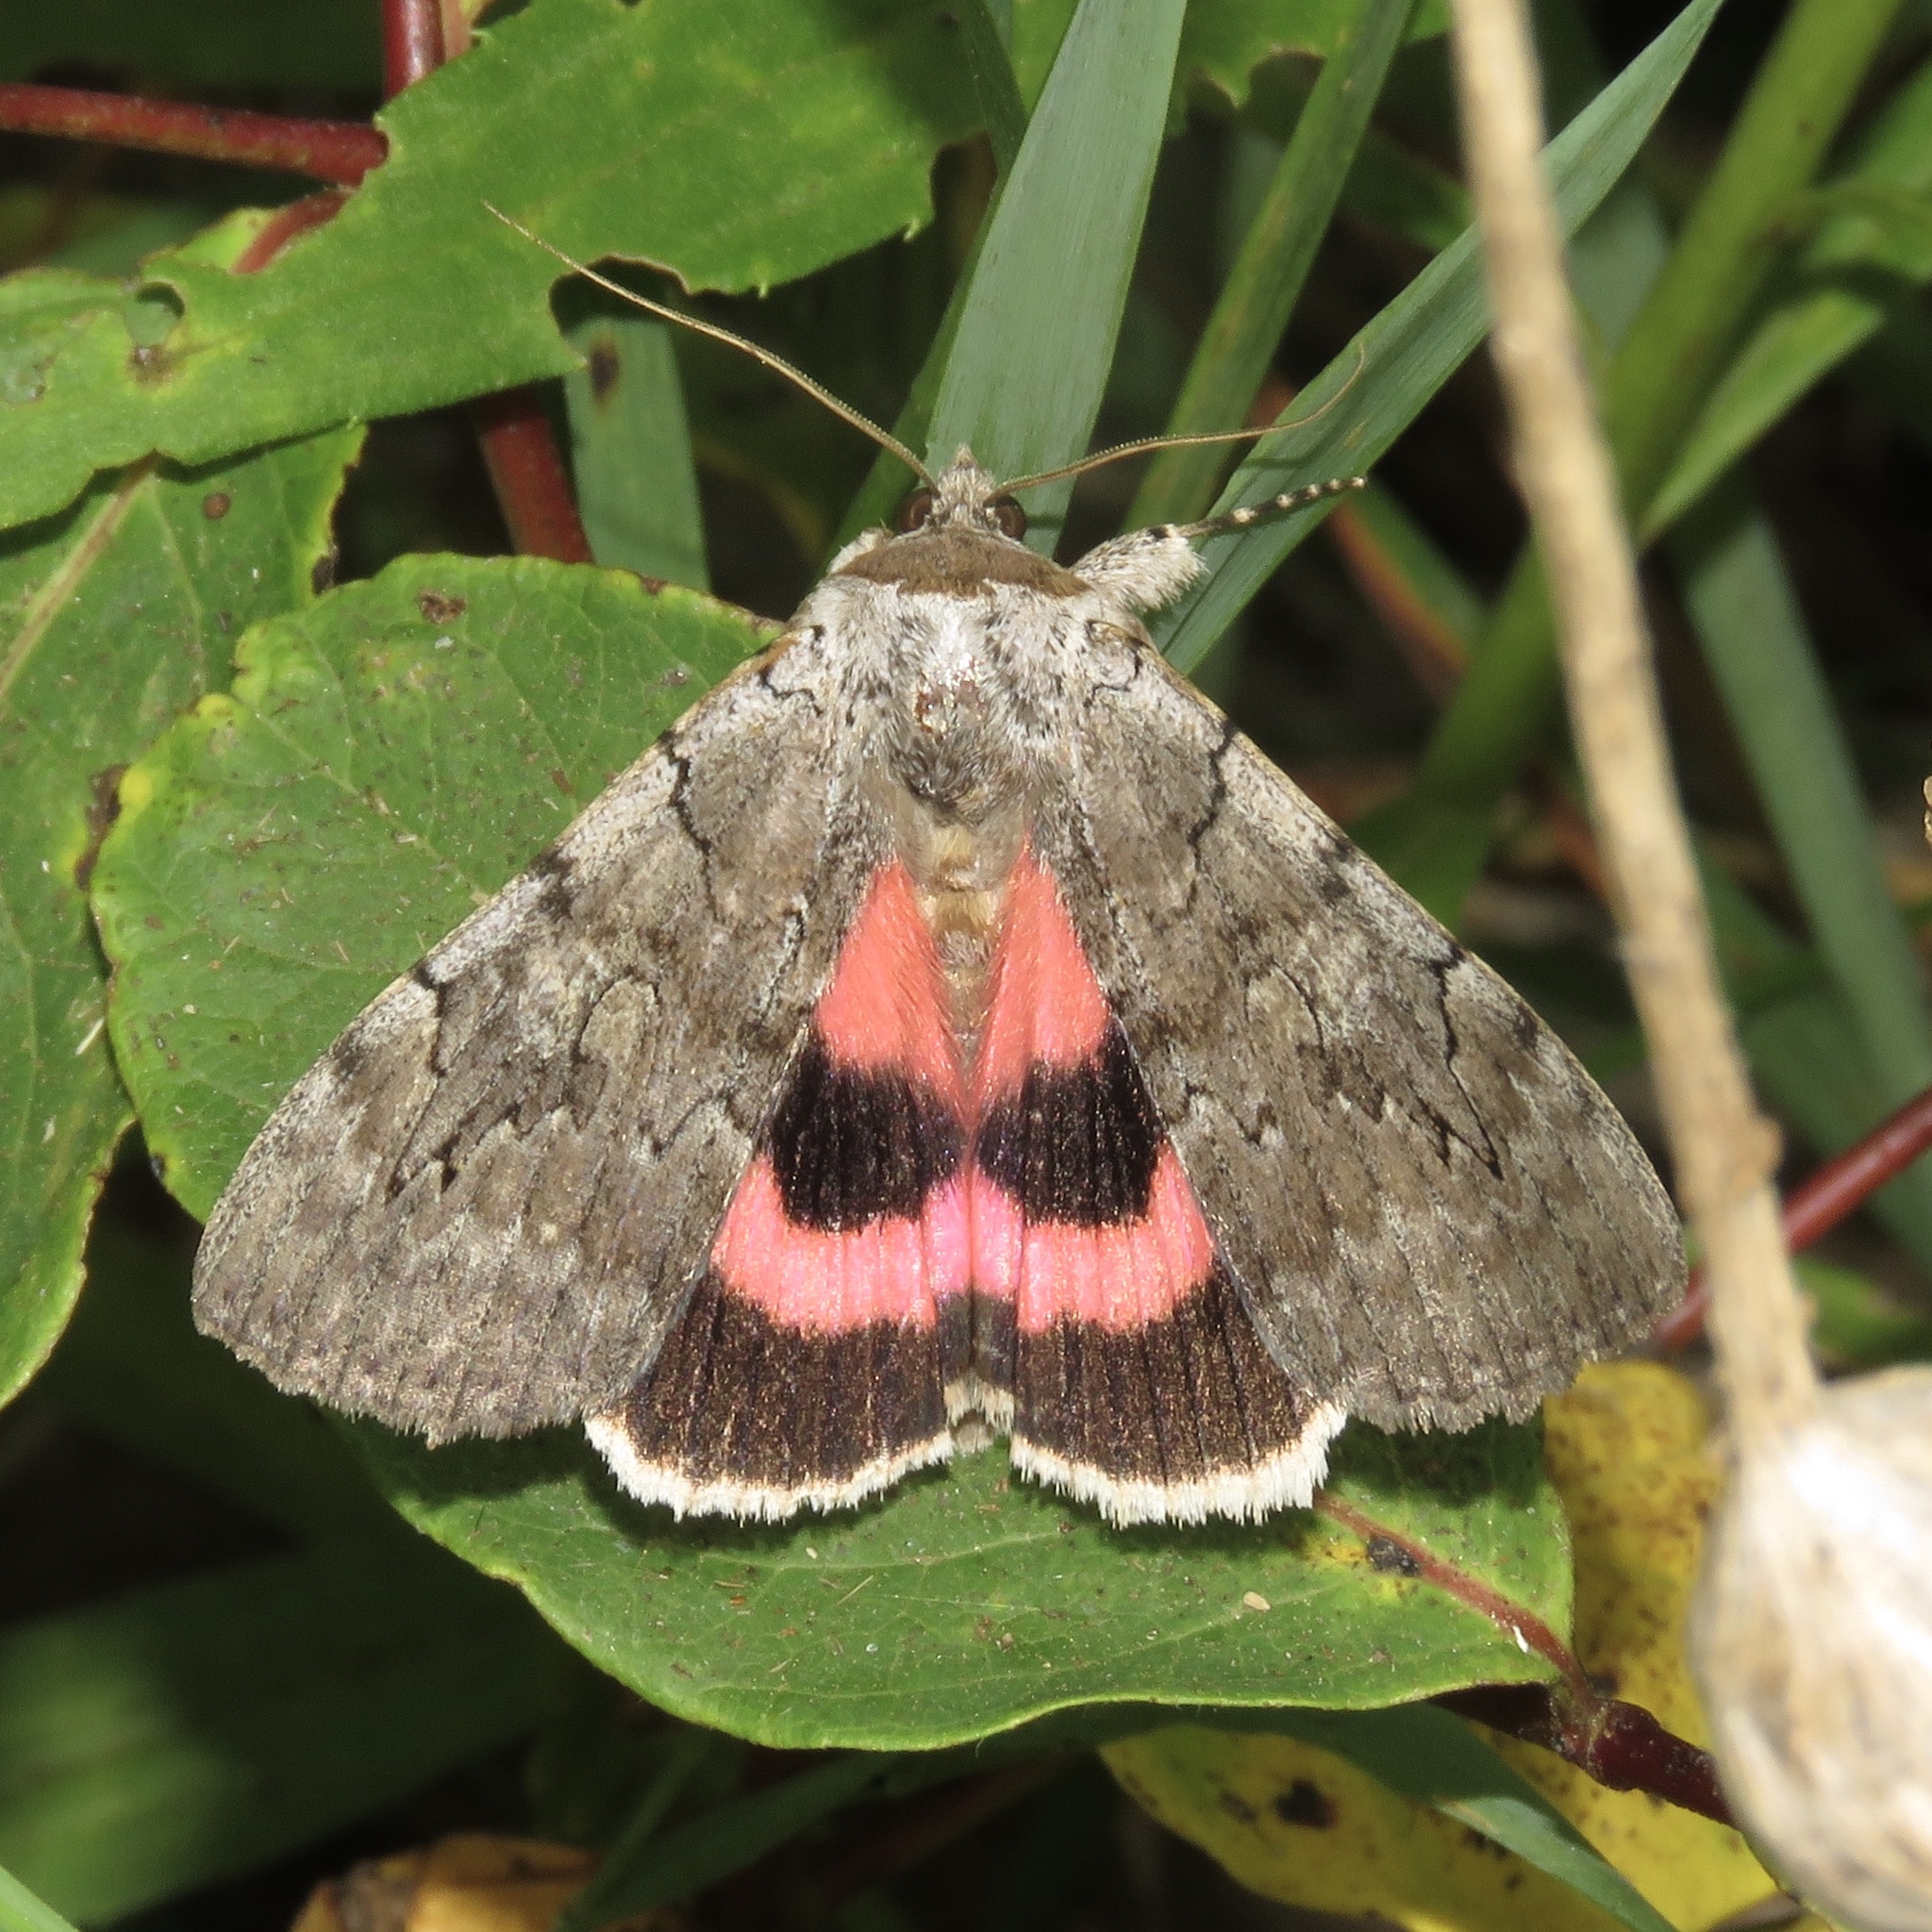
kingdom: Animalia
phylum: Arthropoda
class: Insecta
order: Lepidoptera
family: Erebidae
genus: Catocala
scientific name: Catocala concumbens
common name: Pink underwing
